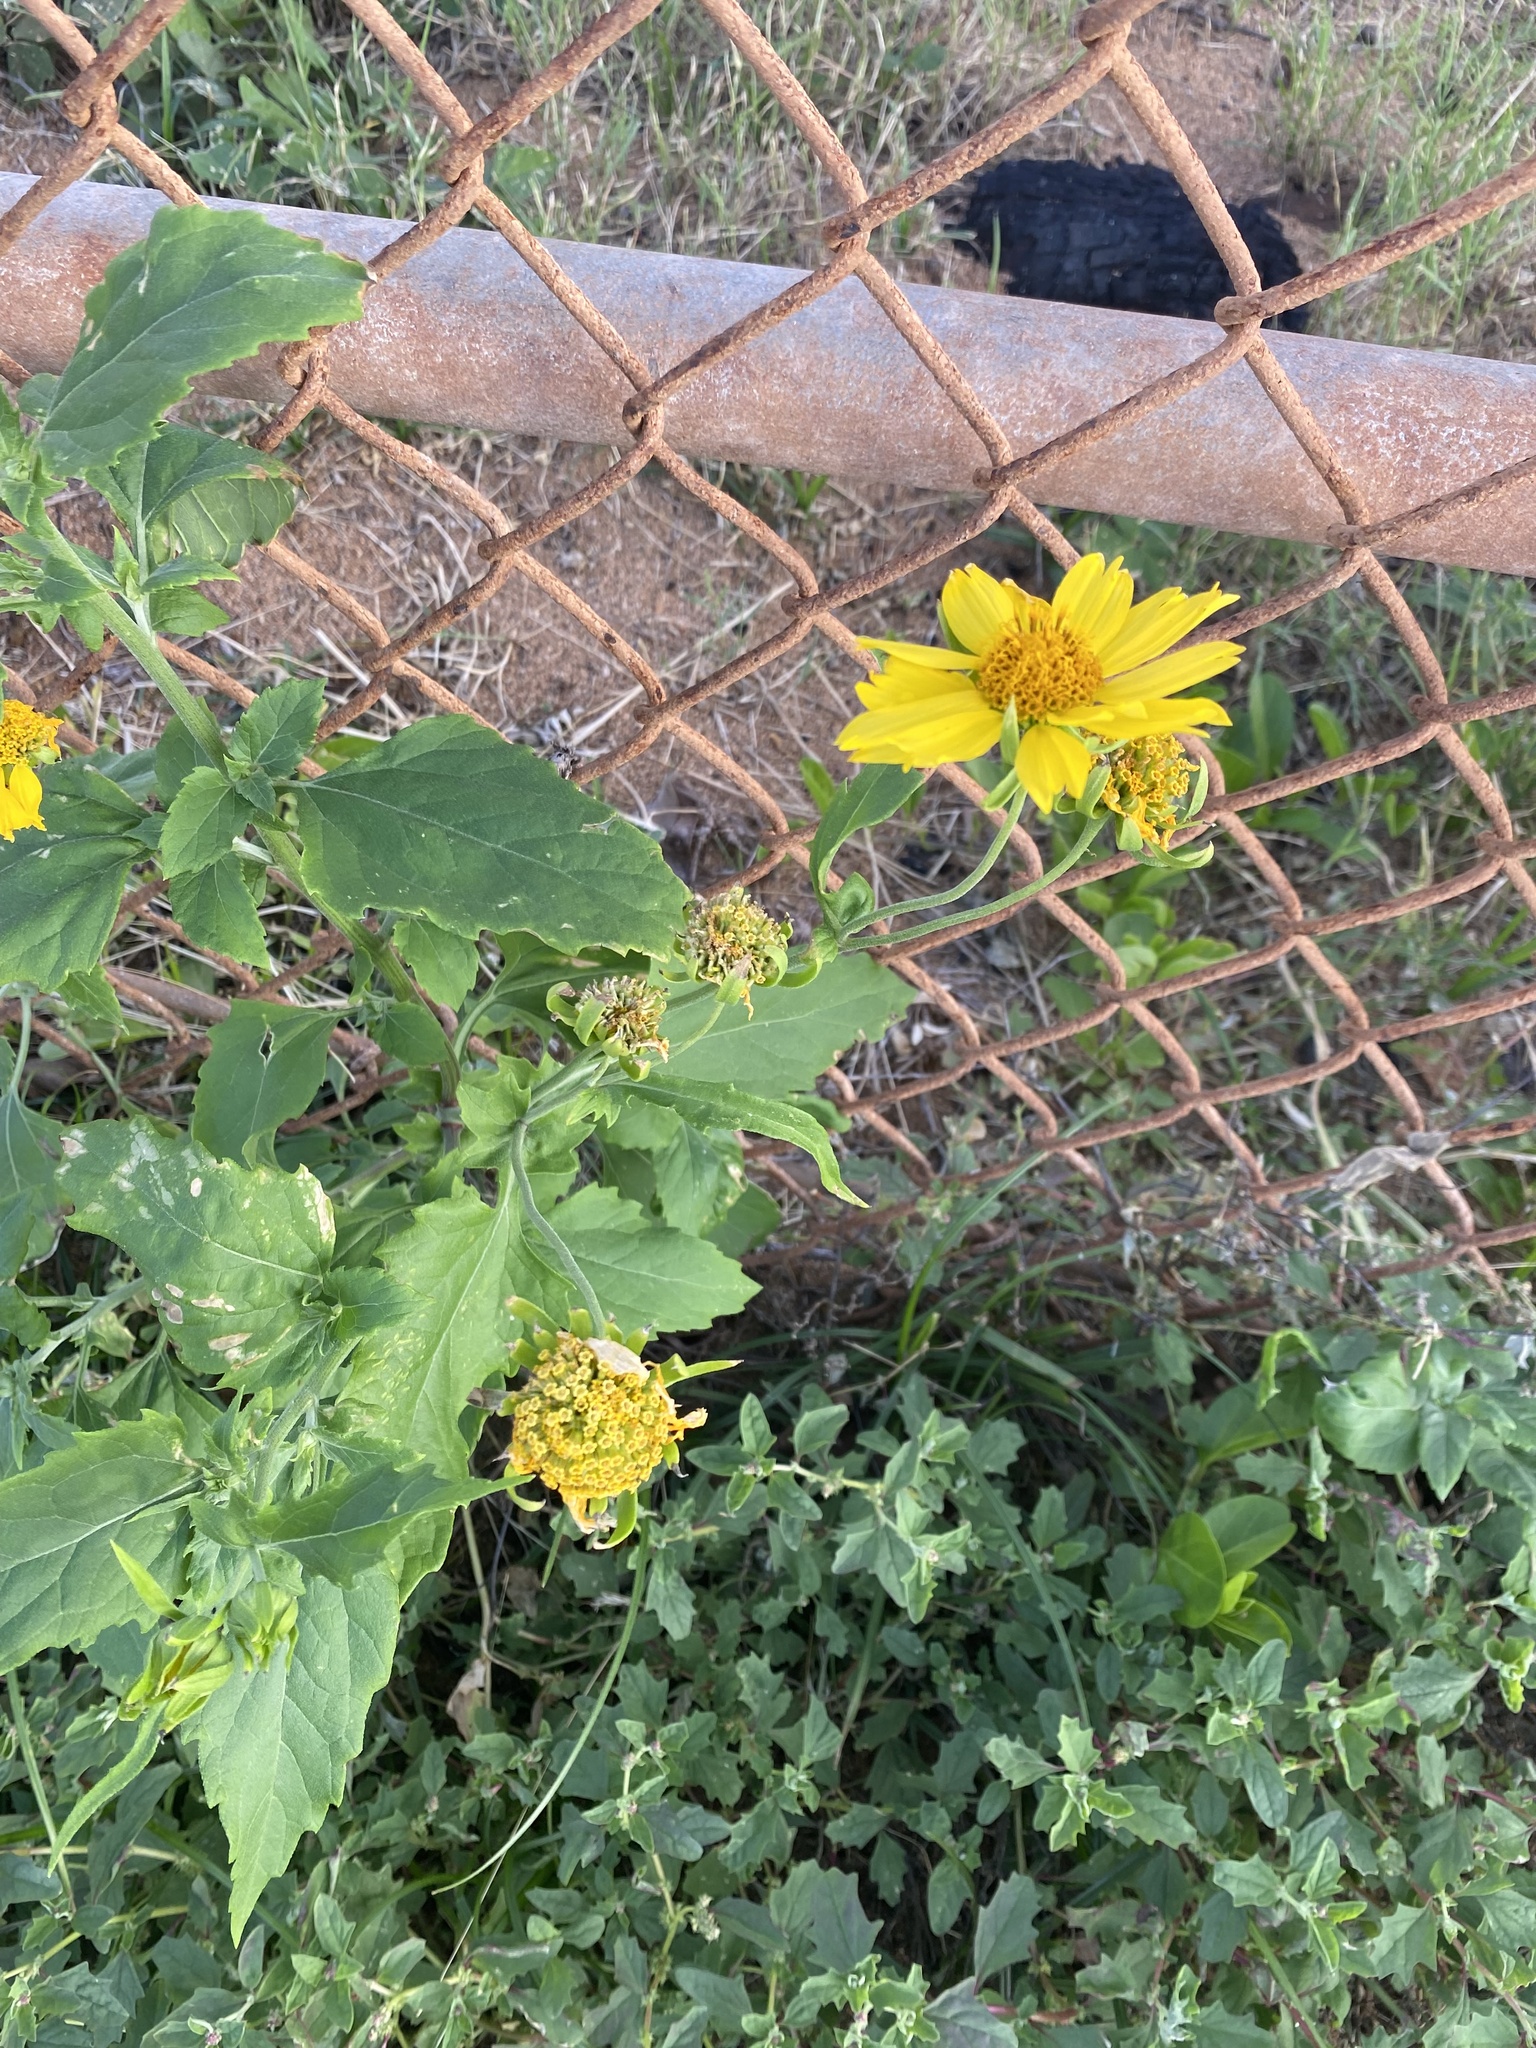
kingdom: Plantae
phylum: Tracheophyta
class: Magnoliopsida
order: Asterales
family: Asteraceae
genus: Verbesina
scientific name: Verbesina encelioides
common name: Golden crownbeard
